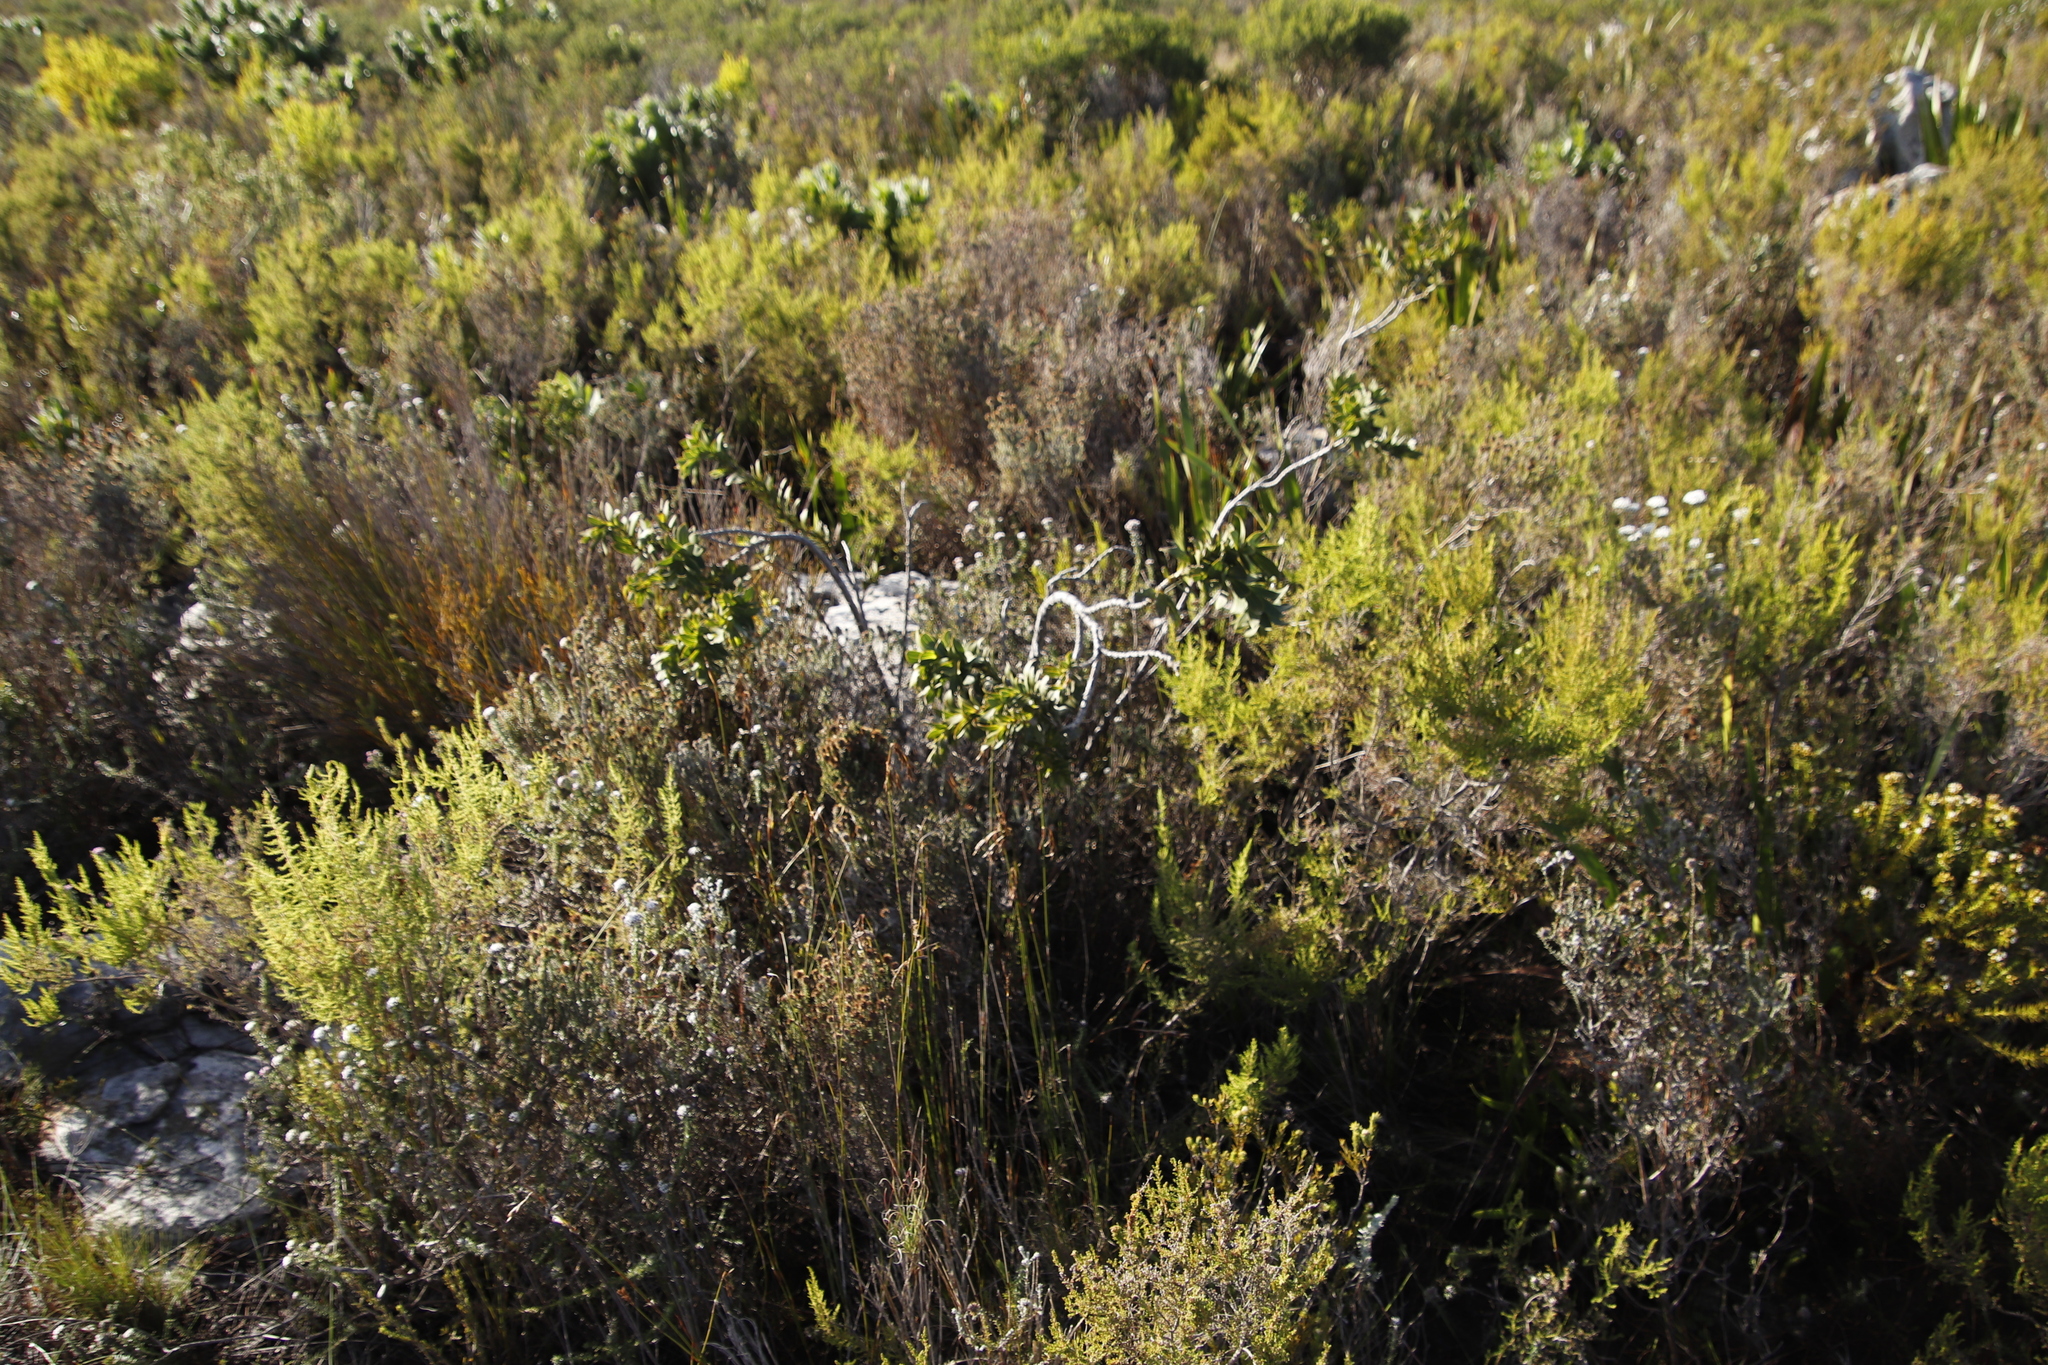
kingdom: Plantae
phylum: Tracheophyta
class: Magnoliopsida
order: Fabales
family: Fabaceae
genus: Liparia
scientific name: Liparia splendens
